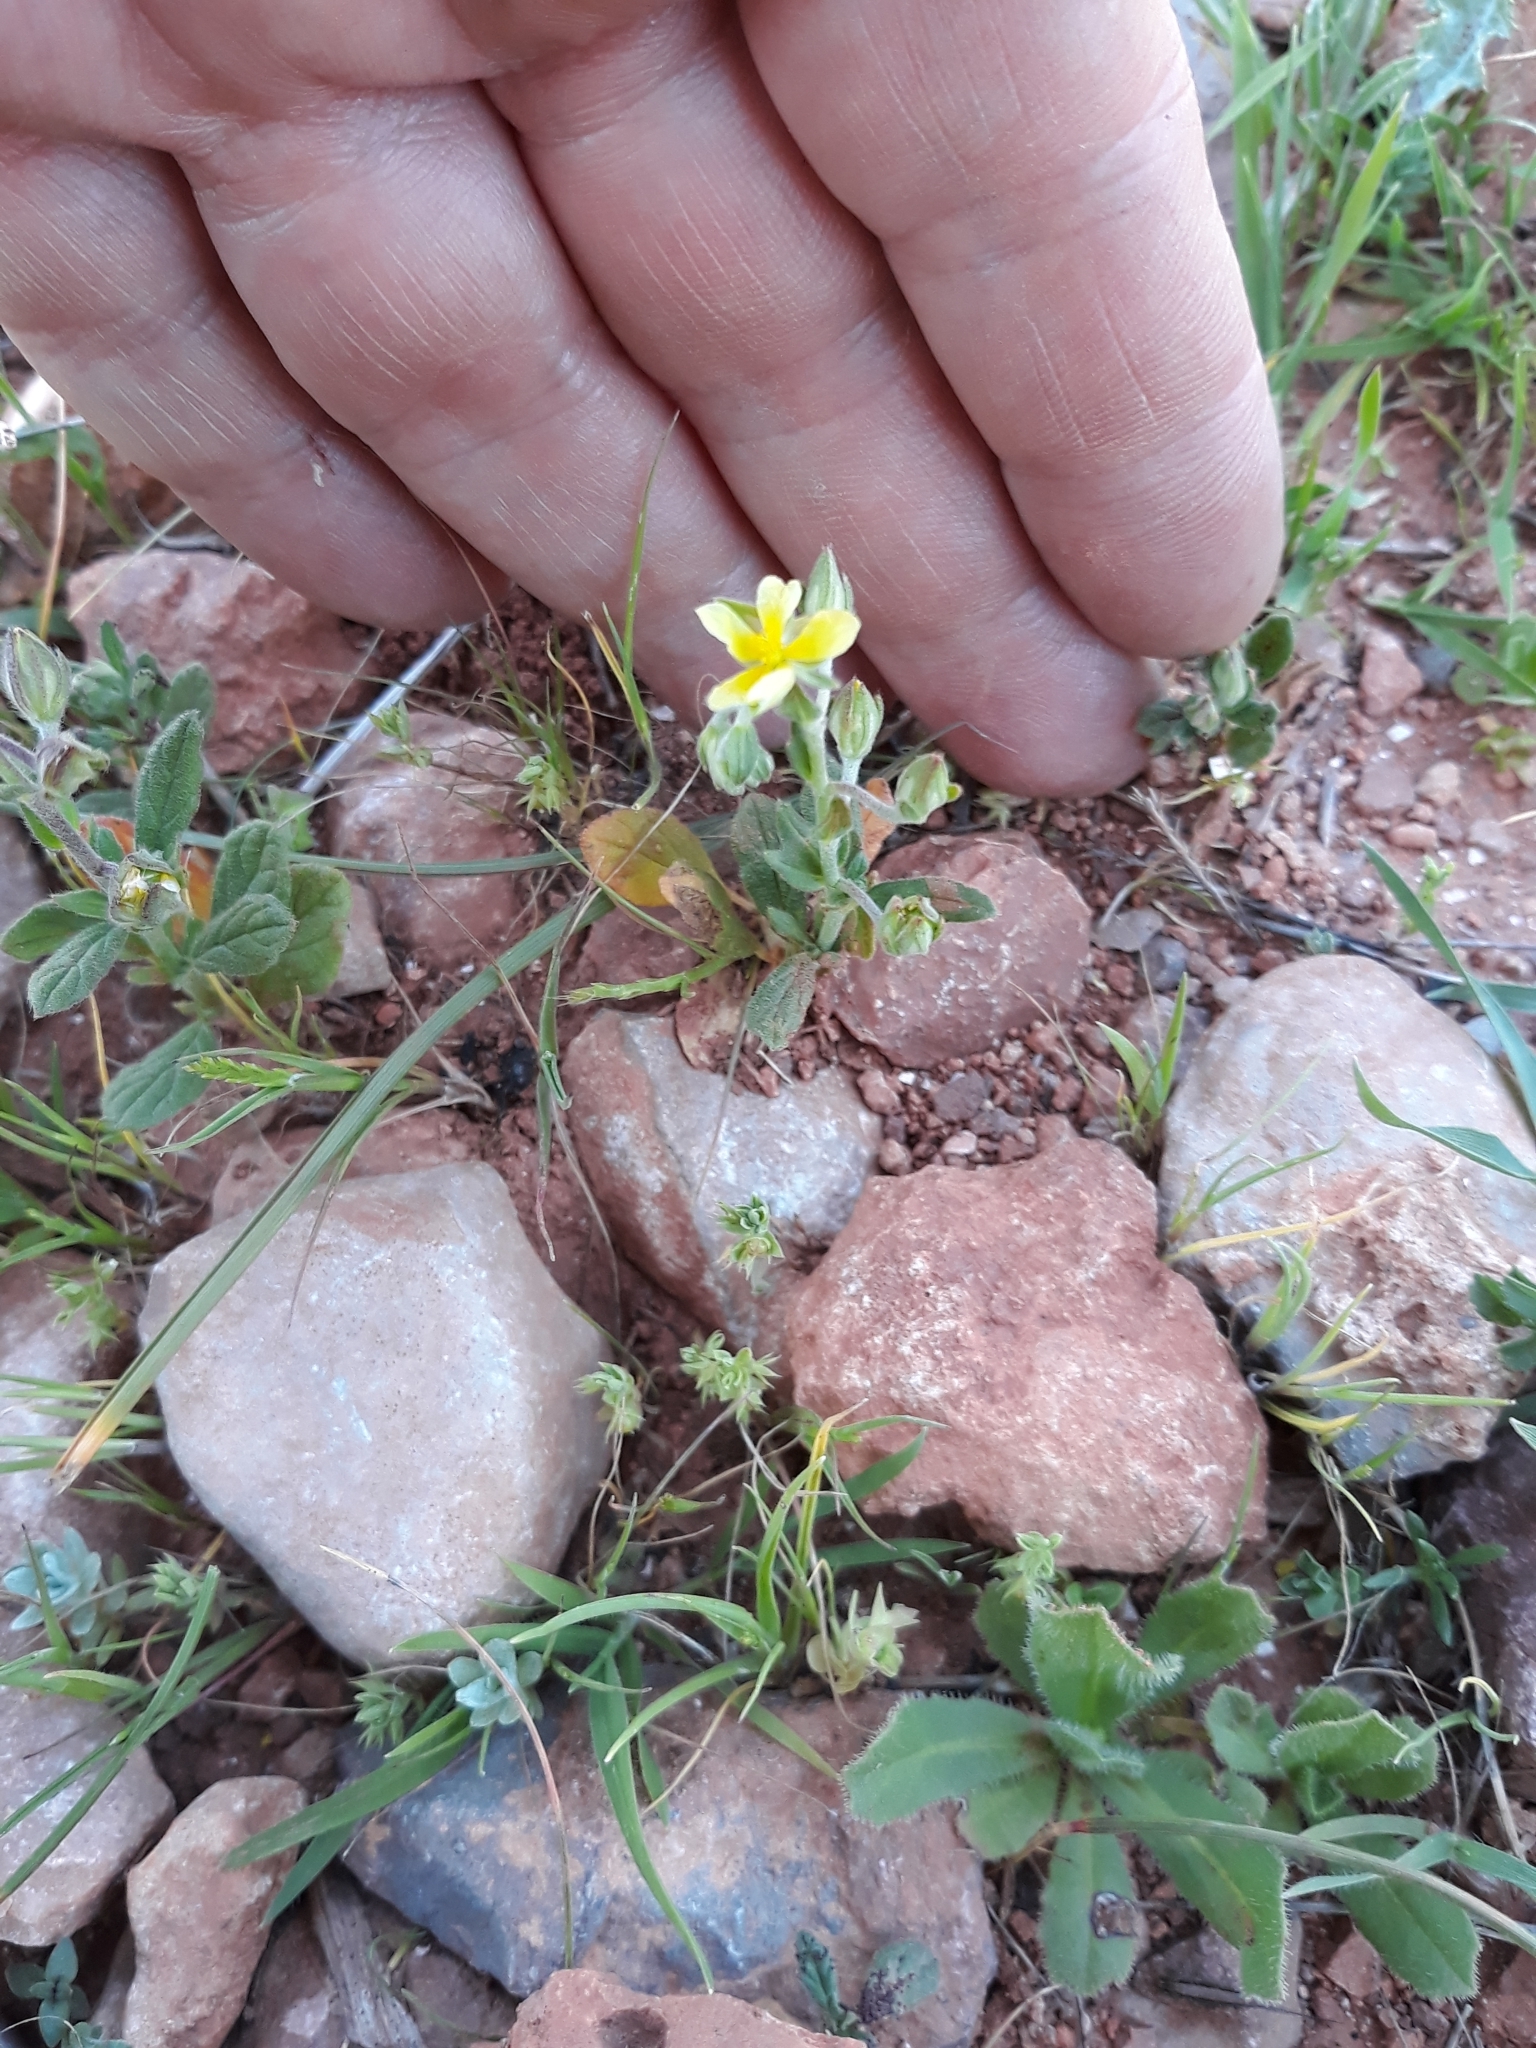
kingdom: Plantae
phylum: Tracheophyta
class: Magnoliopsida
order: Malvales
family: Cistaceae
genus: Helianthemum
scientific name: Helianthemum salicifolium
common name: Willowleaf frostweed
